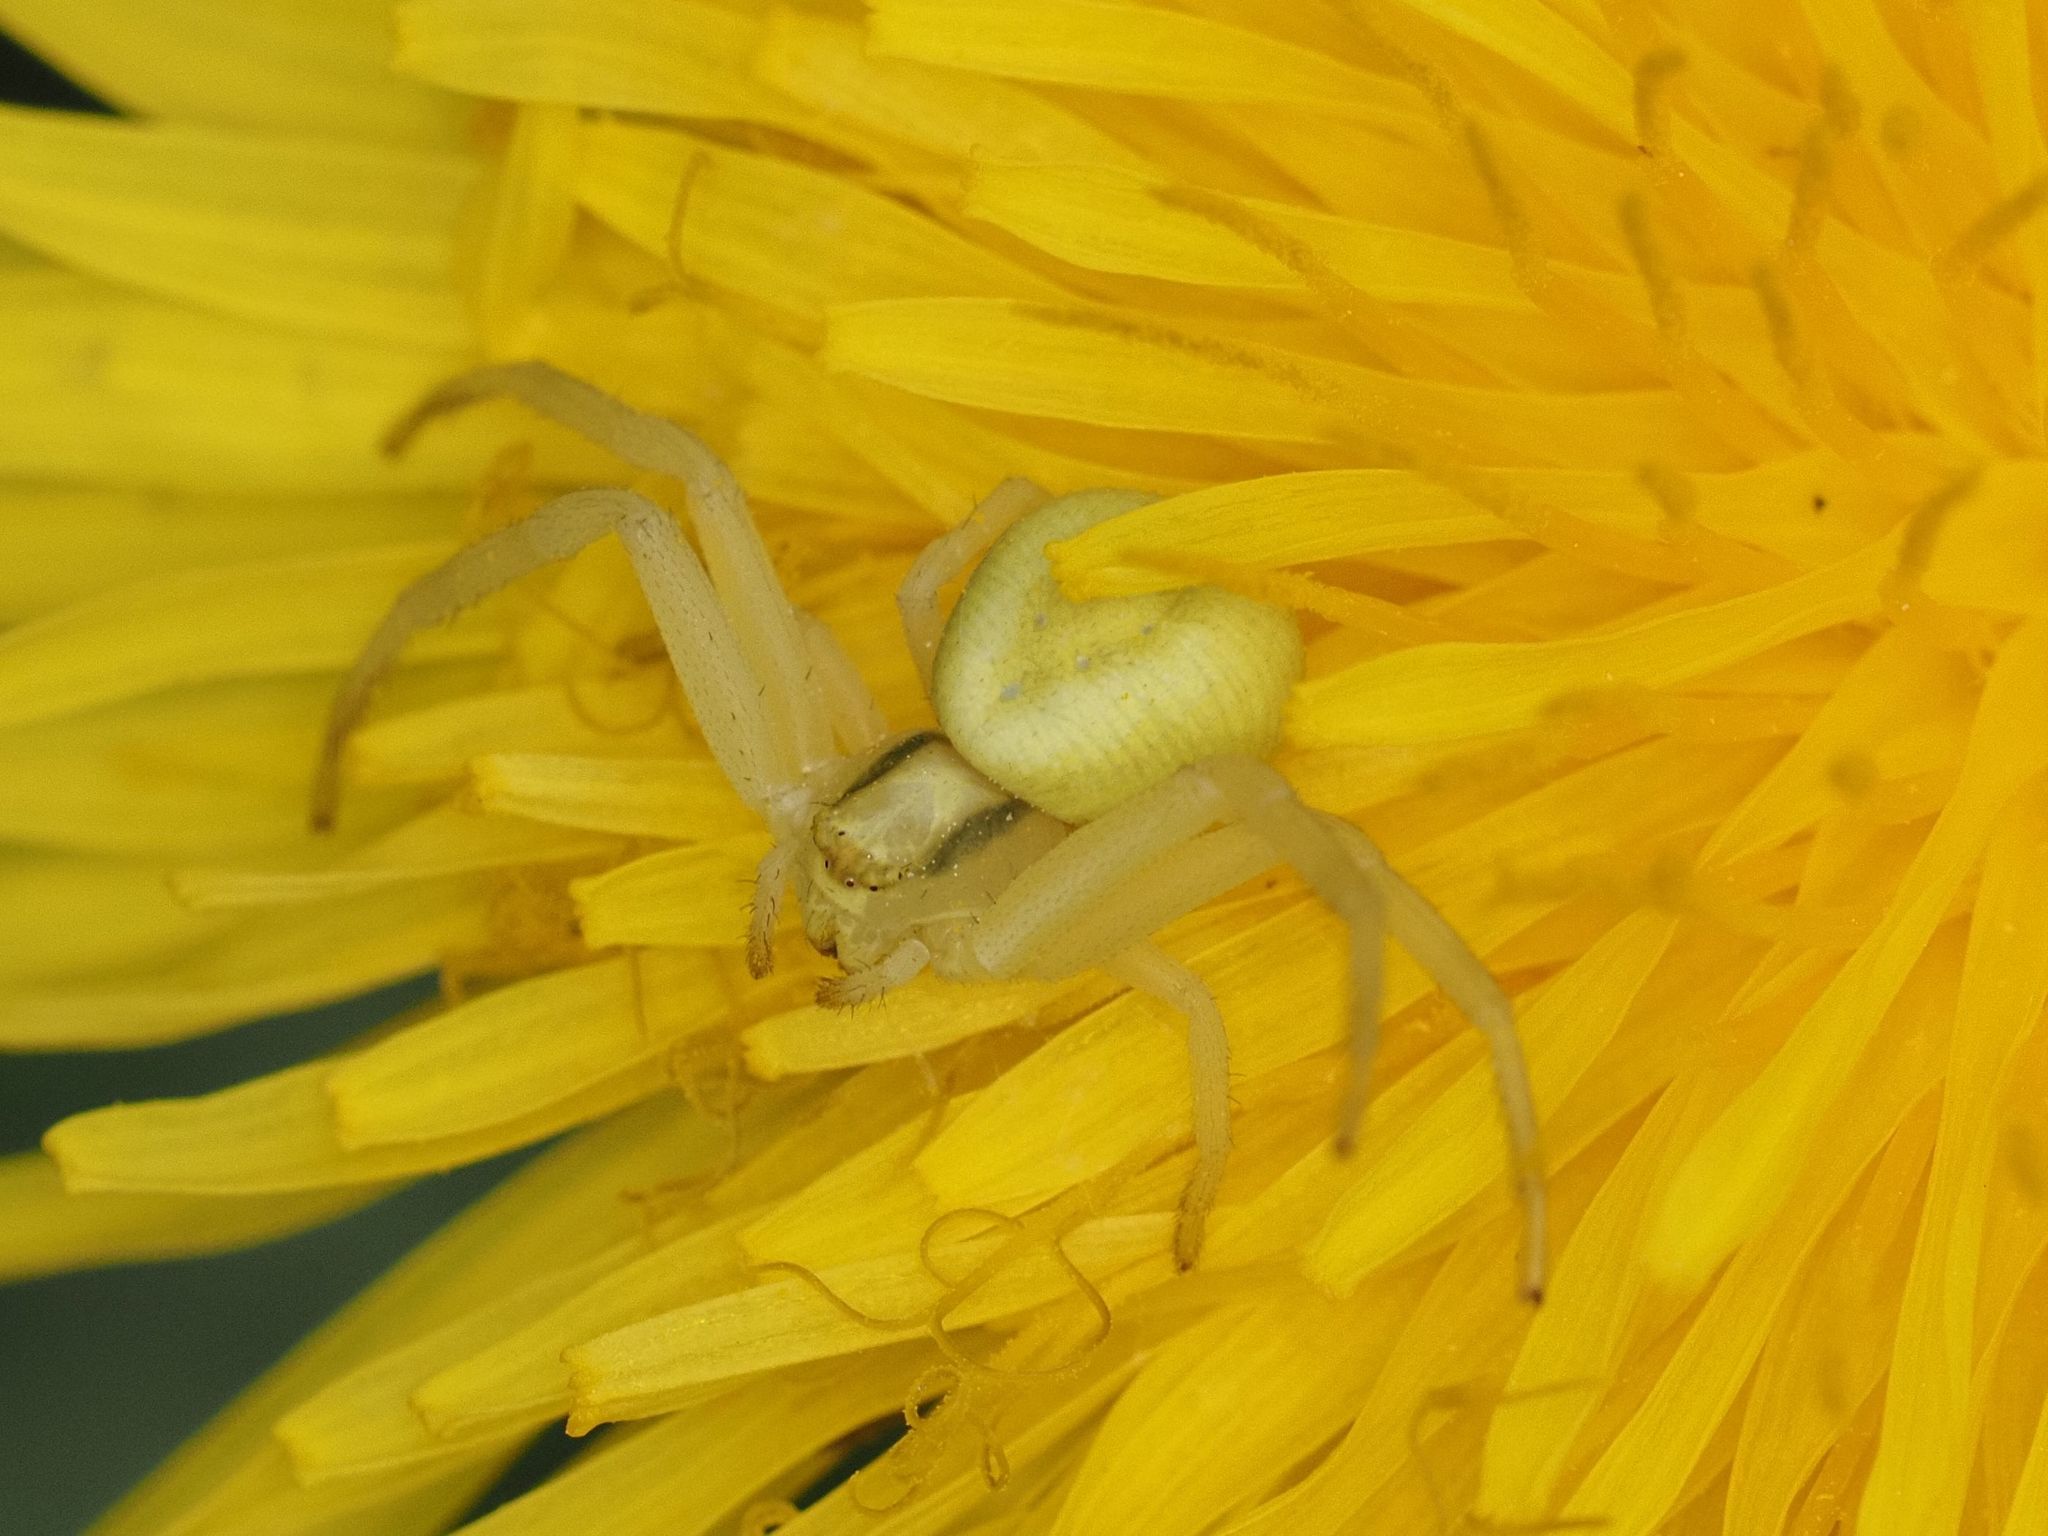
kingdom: Animalia
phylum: Arthropoda
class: Arachnida
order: Araneae
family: Thomisidae
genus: Misumena
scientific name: Misumena vatia
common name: Goldenrod crab spider
